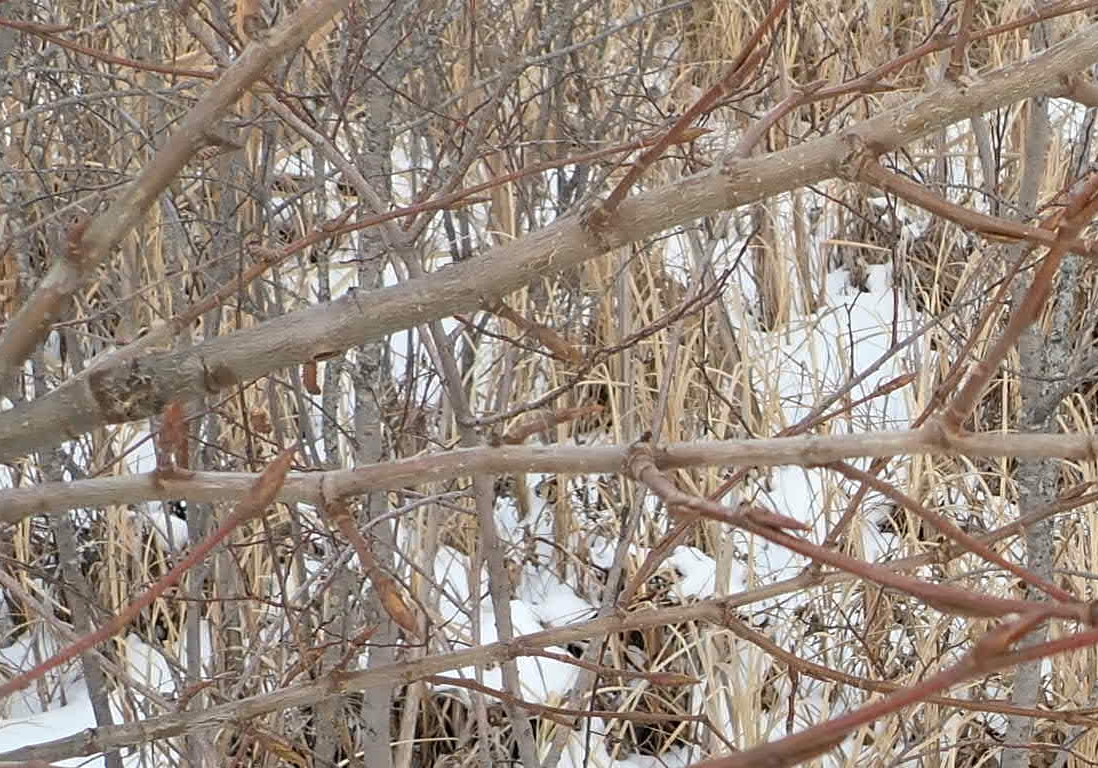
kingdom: Plantae
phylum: Tracheophyta
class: Magnoliopsida
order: Malpighiales
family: Salicaceae
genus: Populus
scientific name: Populus balsamifera
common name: Balsam poplar
